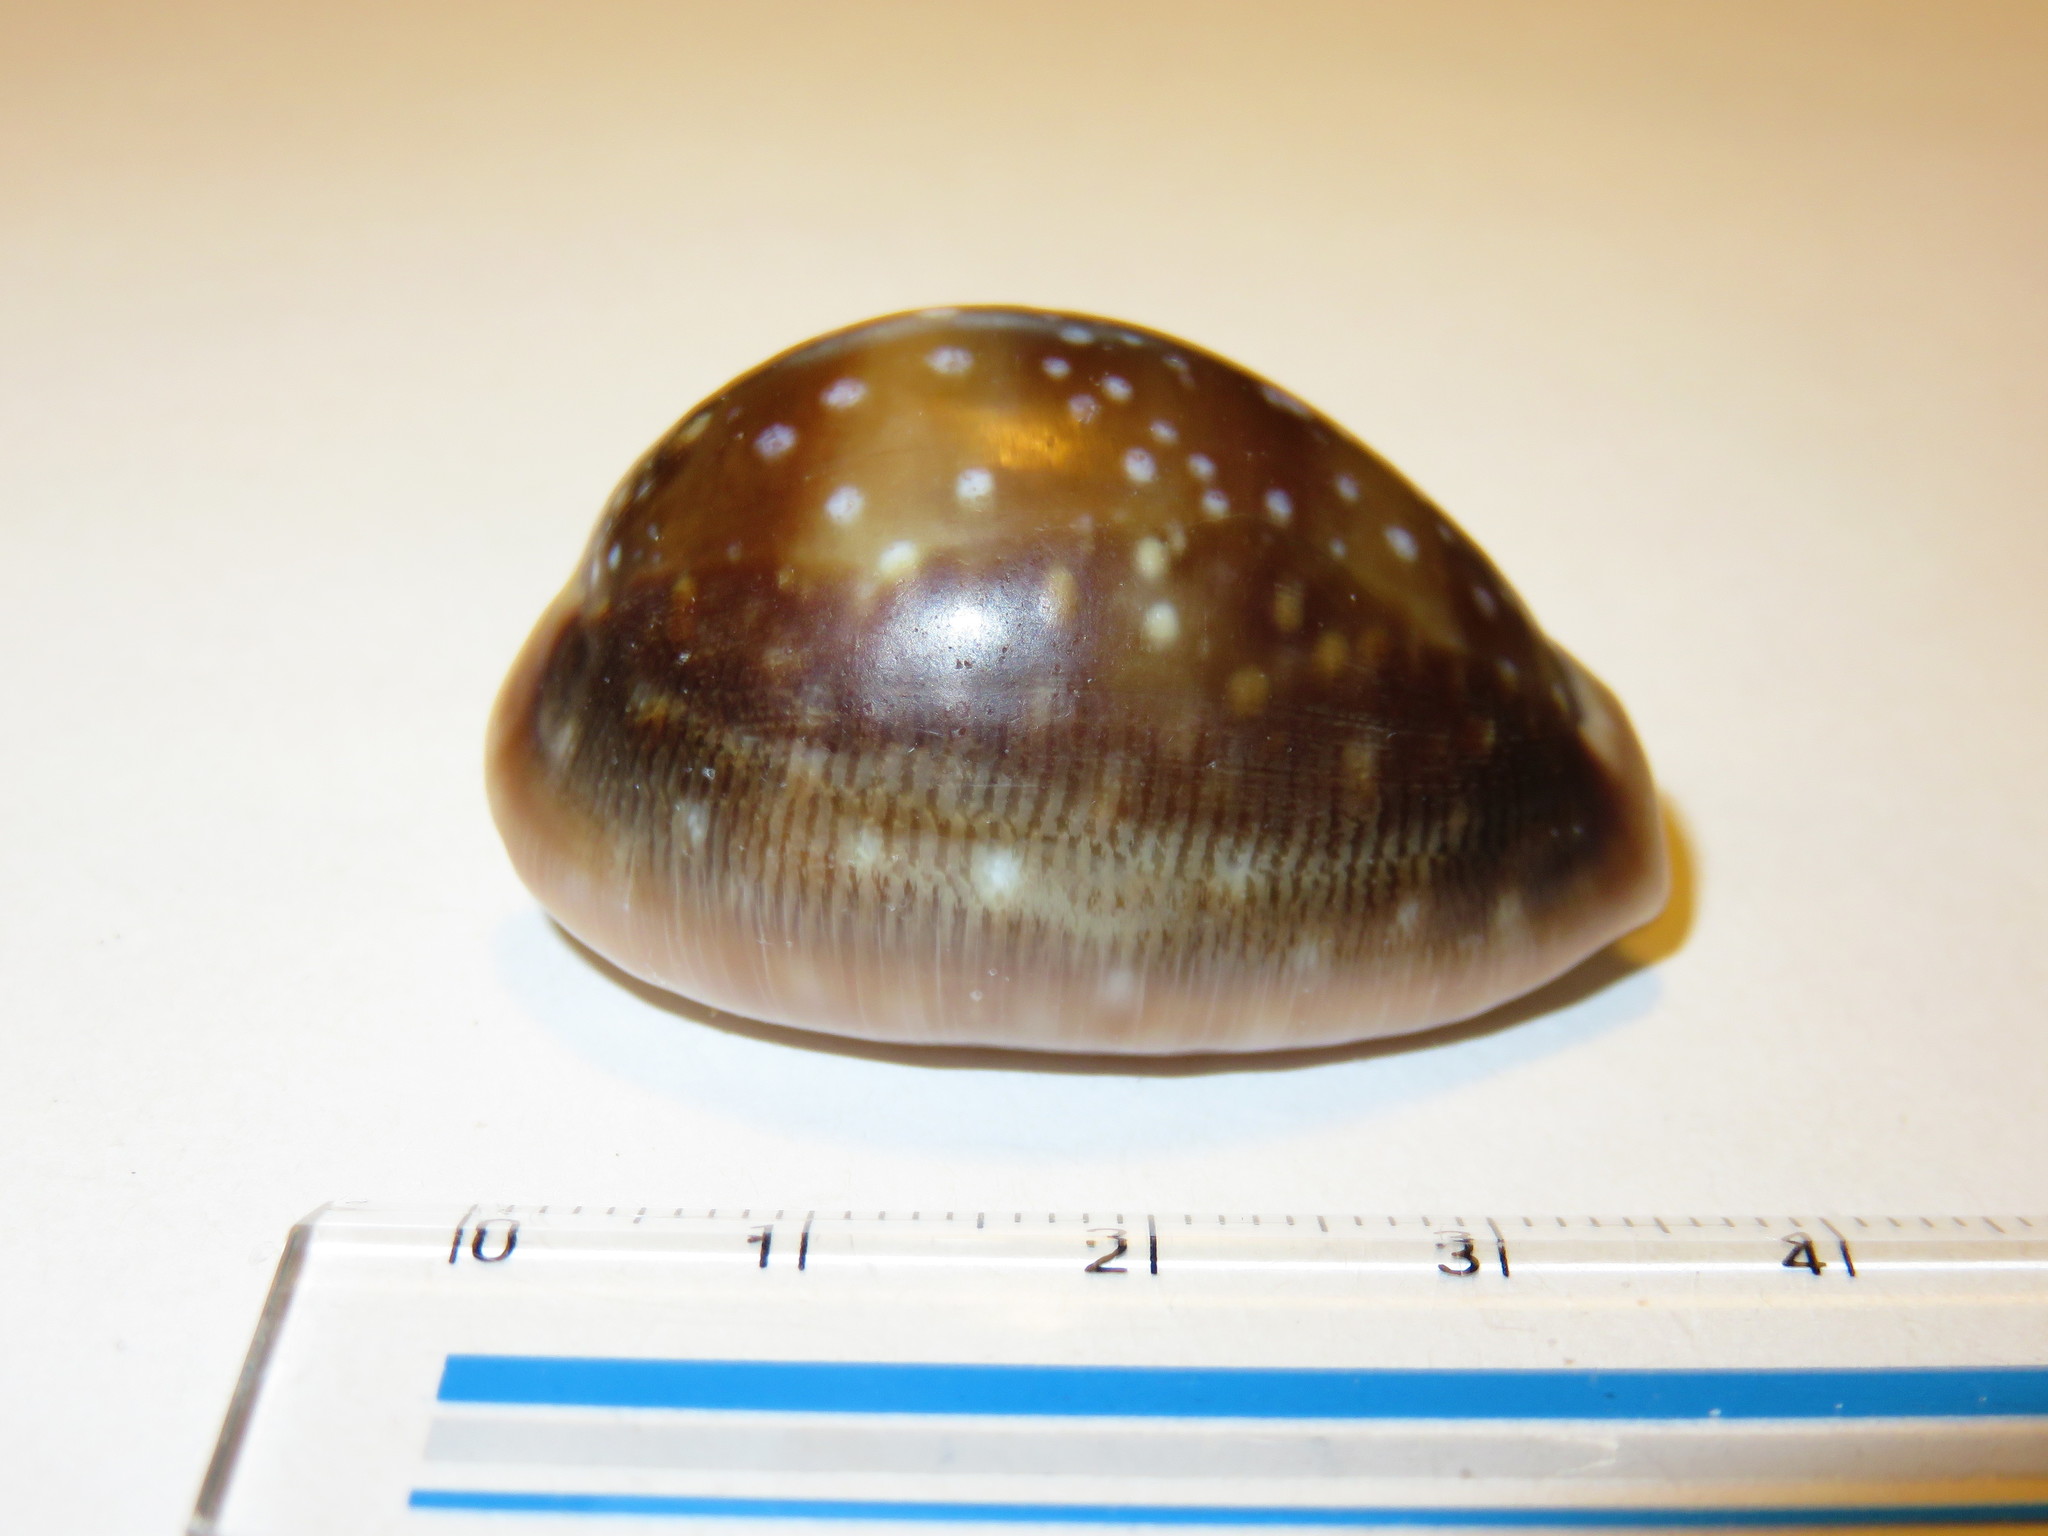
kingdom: Animalia
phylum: Mollusca
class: Gastropoda
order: Littorinimorpha
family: Cypraeidae
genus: Lyncina
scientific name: Lyncina vitellus
